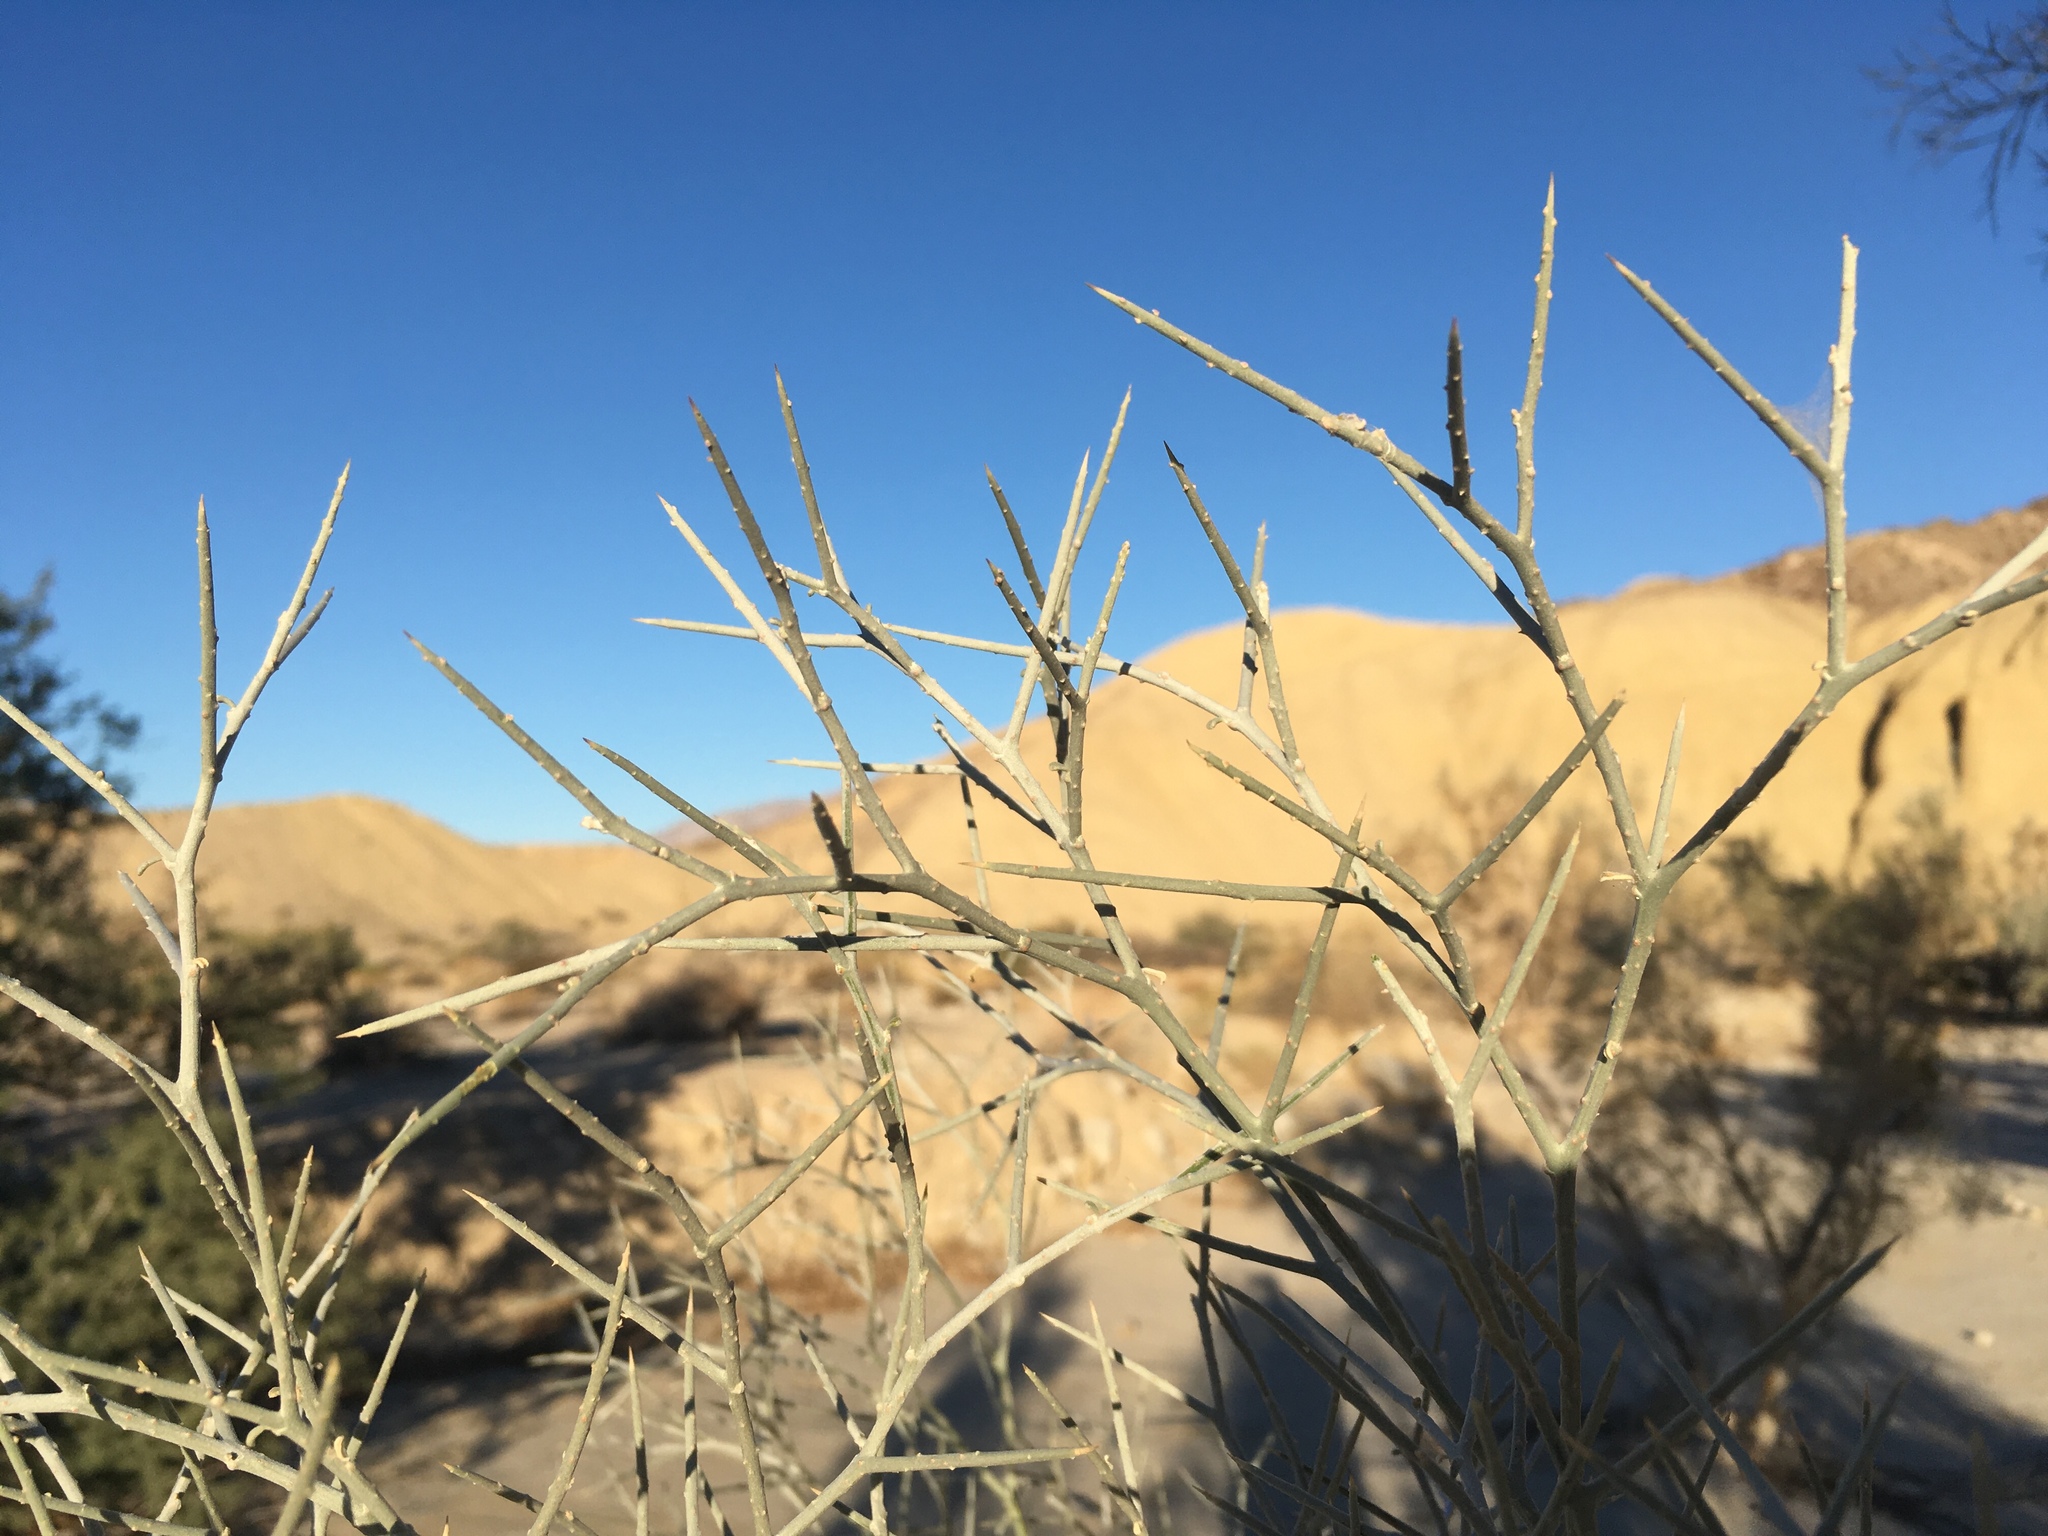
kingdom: Plantae
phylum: Tracheophyta
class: Magnoliopsida
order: Fabales
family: Fabaceae
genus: Psorothamnus
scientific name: Psorothamnus spinosus
